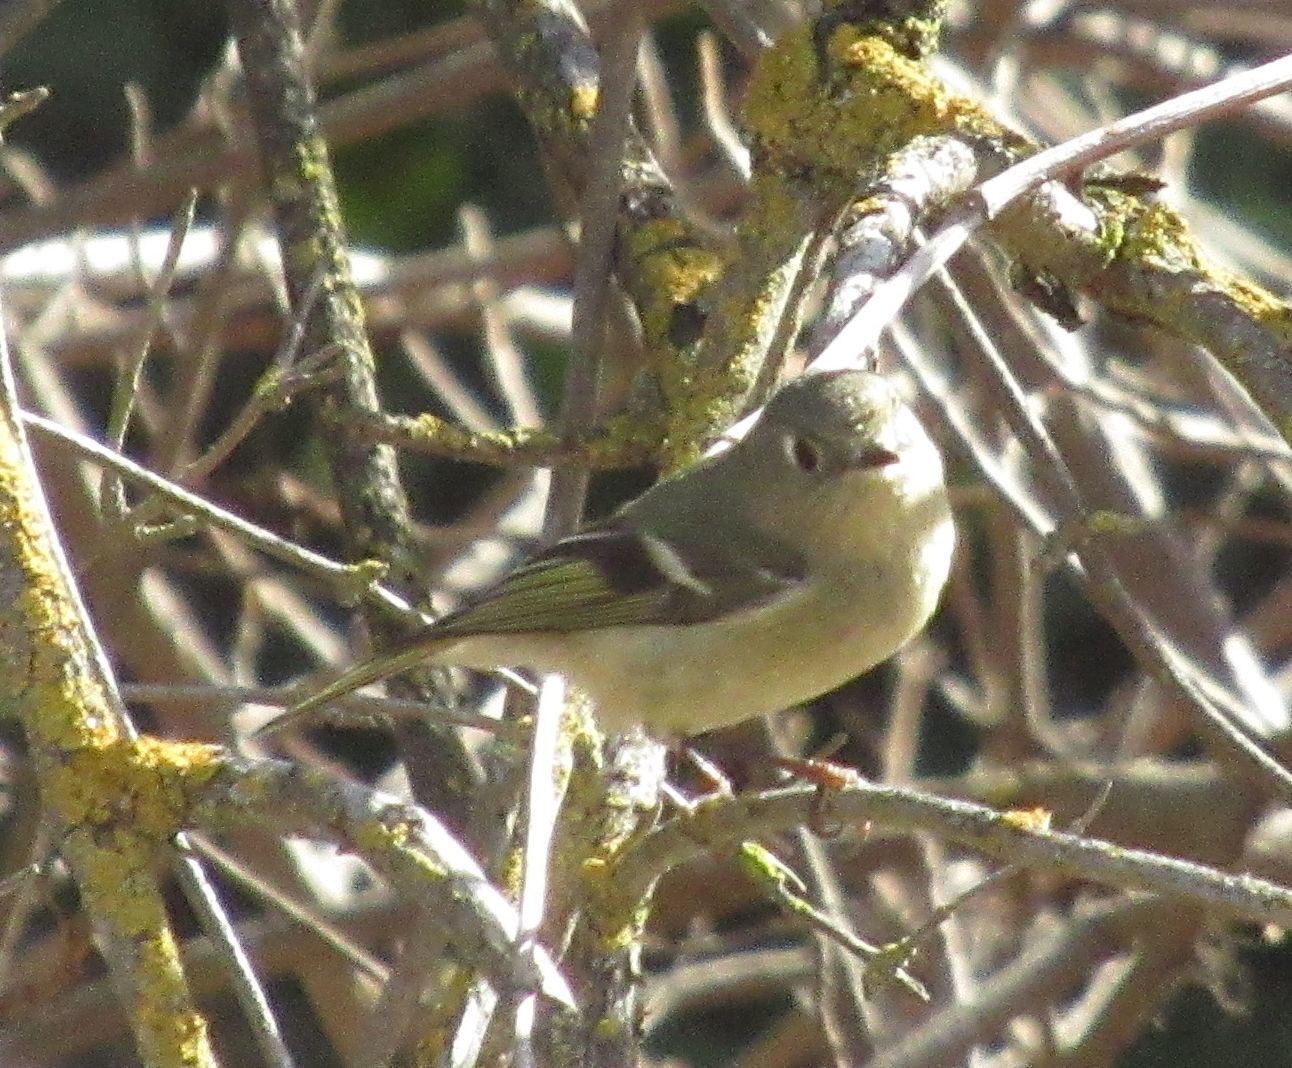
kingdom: Animalia
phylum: Chordata
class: Aves
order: Passeriformes
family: Regulidae
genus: Regulus
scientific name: Regulus calendula
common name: Ruby-crowned kinglet
